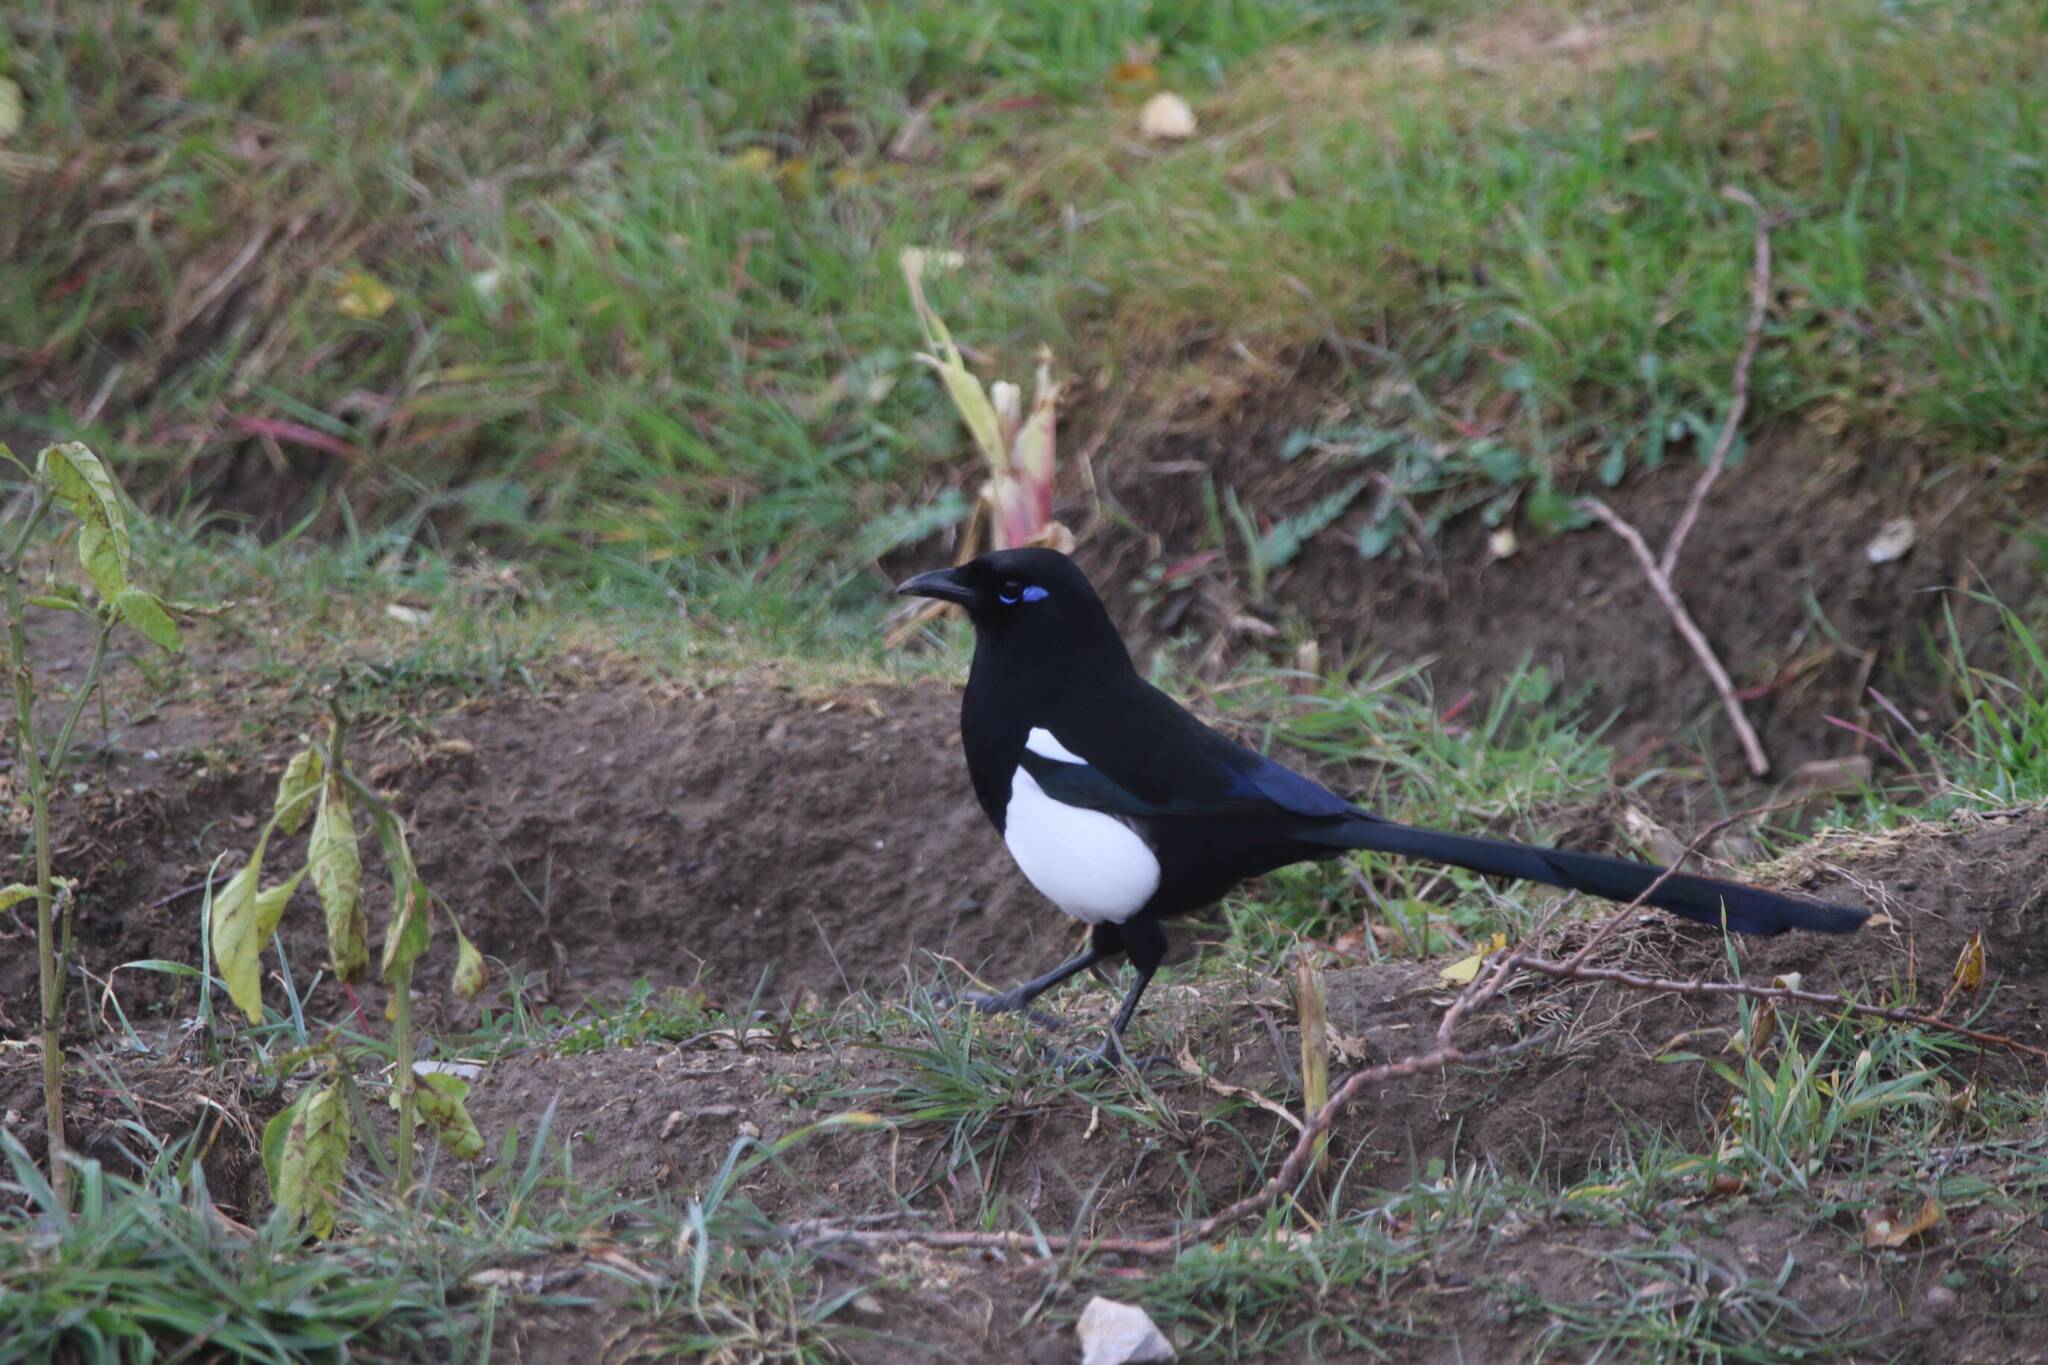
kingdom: Animalia
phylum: Chordata
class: Aves
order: Passeriformes
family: Corvidae
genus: Pica
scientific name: Pica mauritanica
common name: Maghreb magpie
